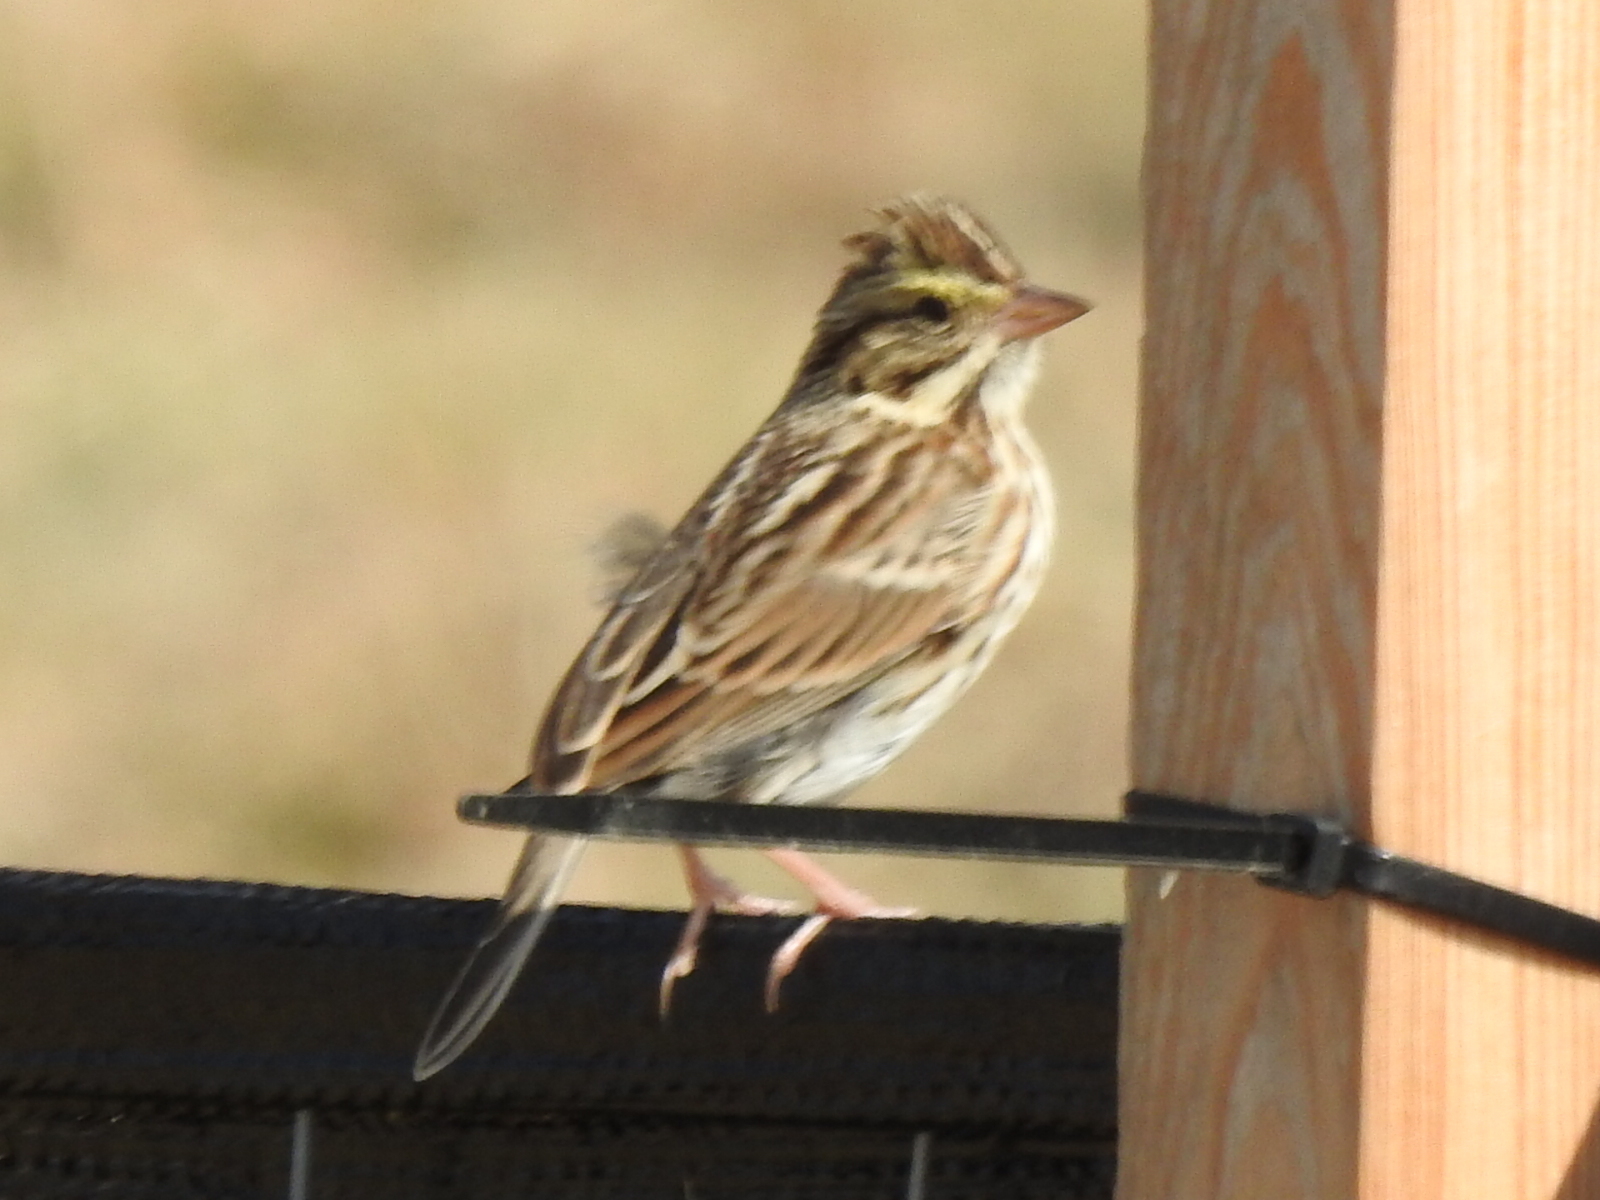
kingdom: Animalia
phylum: Chordata
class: Aves
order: Passeriformes
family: Passerellidae
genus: Passerculus
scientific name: Passerculus sandwichensis
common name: Savannah sparrow
